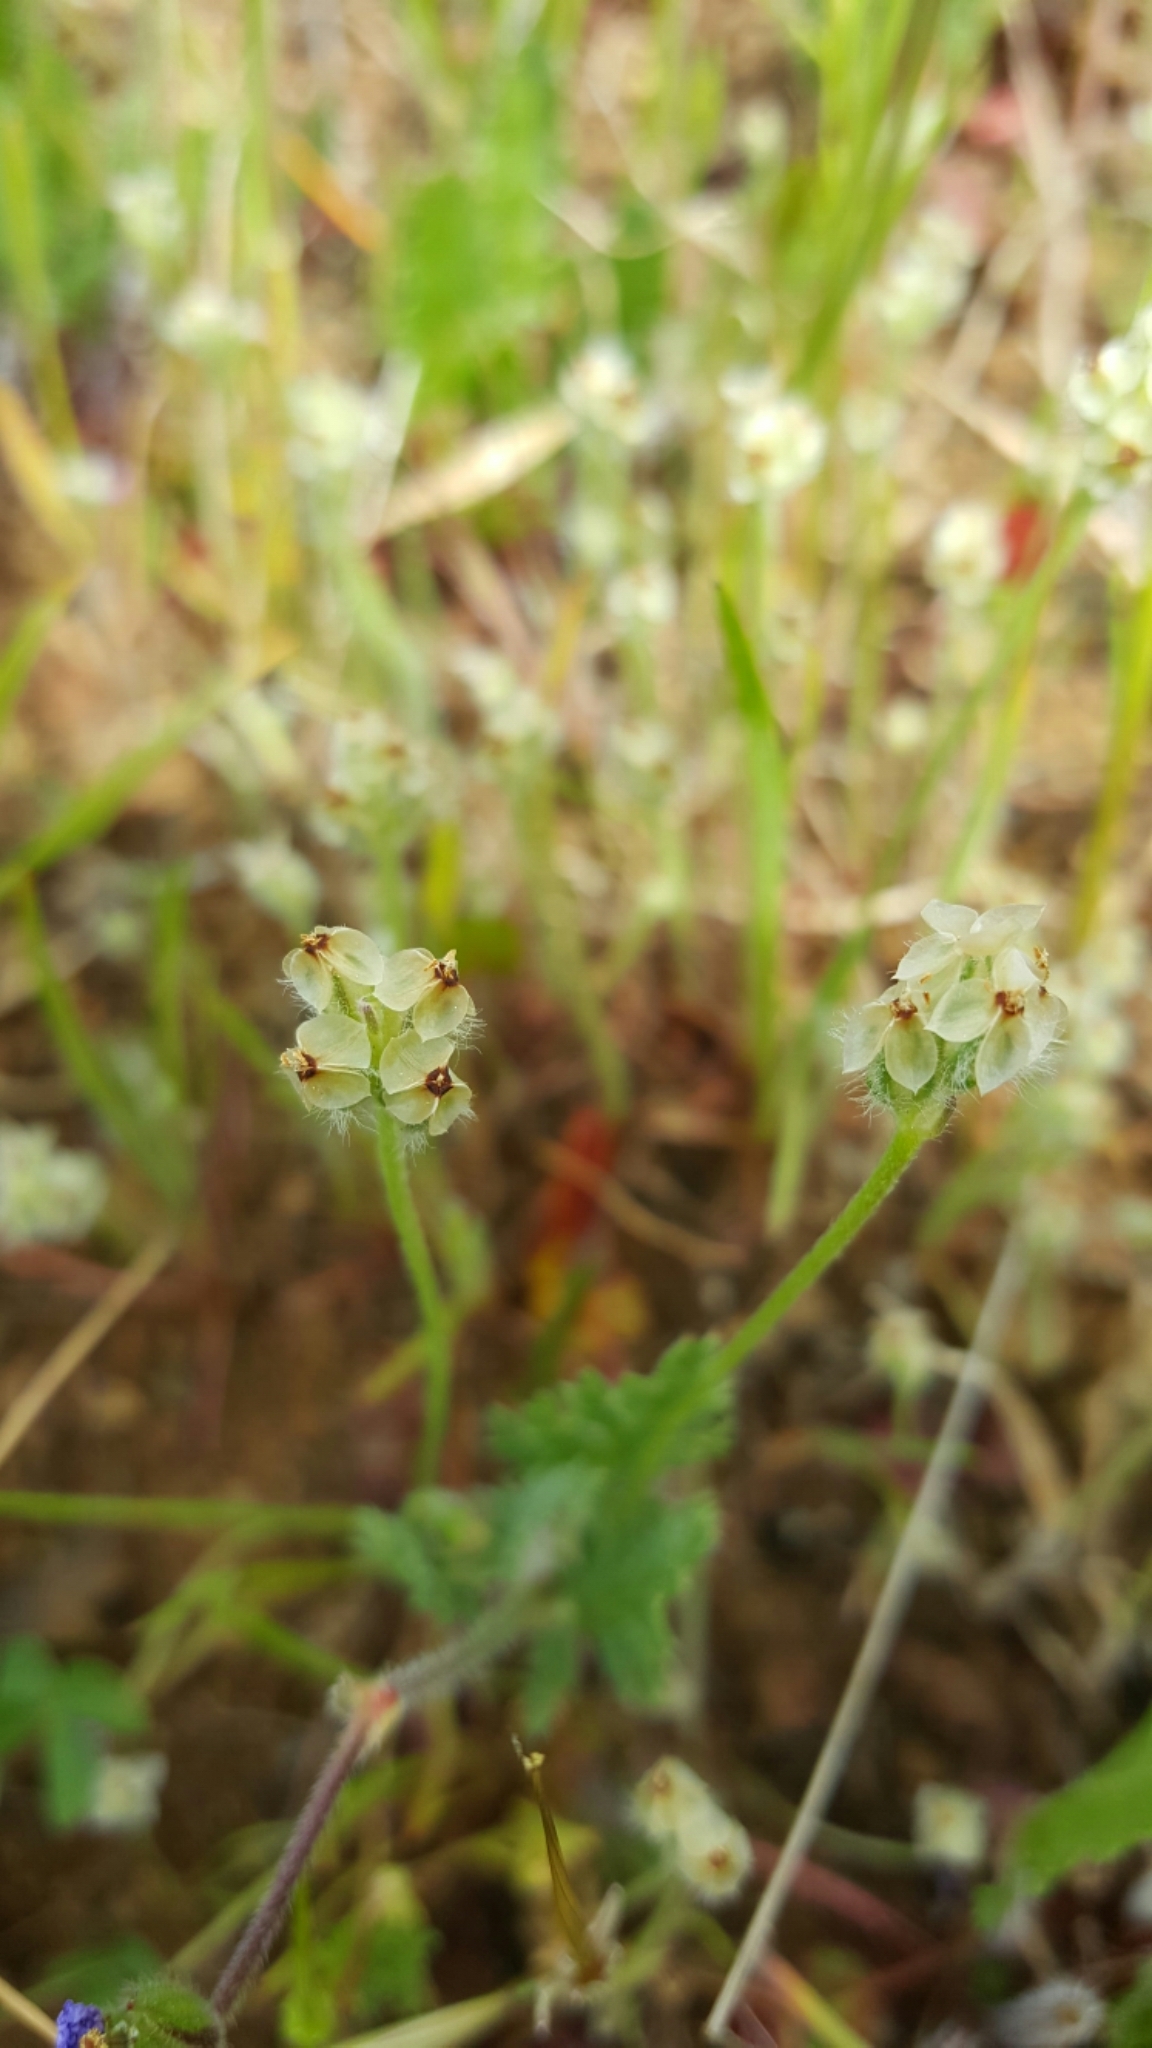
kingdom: Plantae
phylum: Tracheophyta
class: Magnoliopsida
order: Lamiales
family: Plantaginaceae
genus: Plantago
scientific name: Plantago erecta
